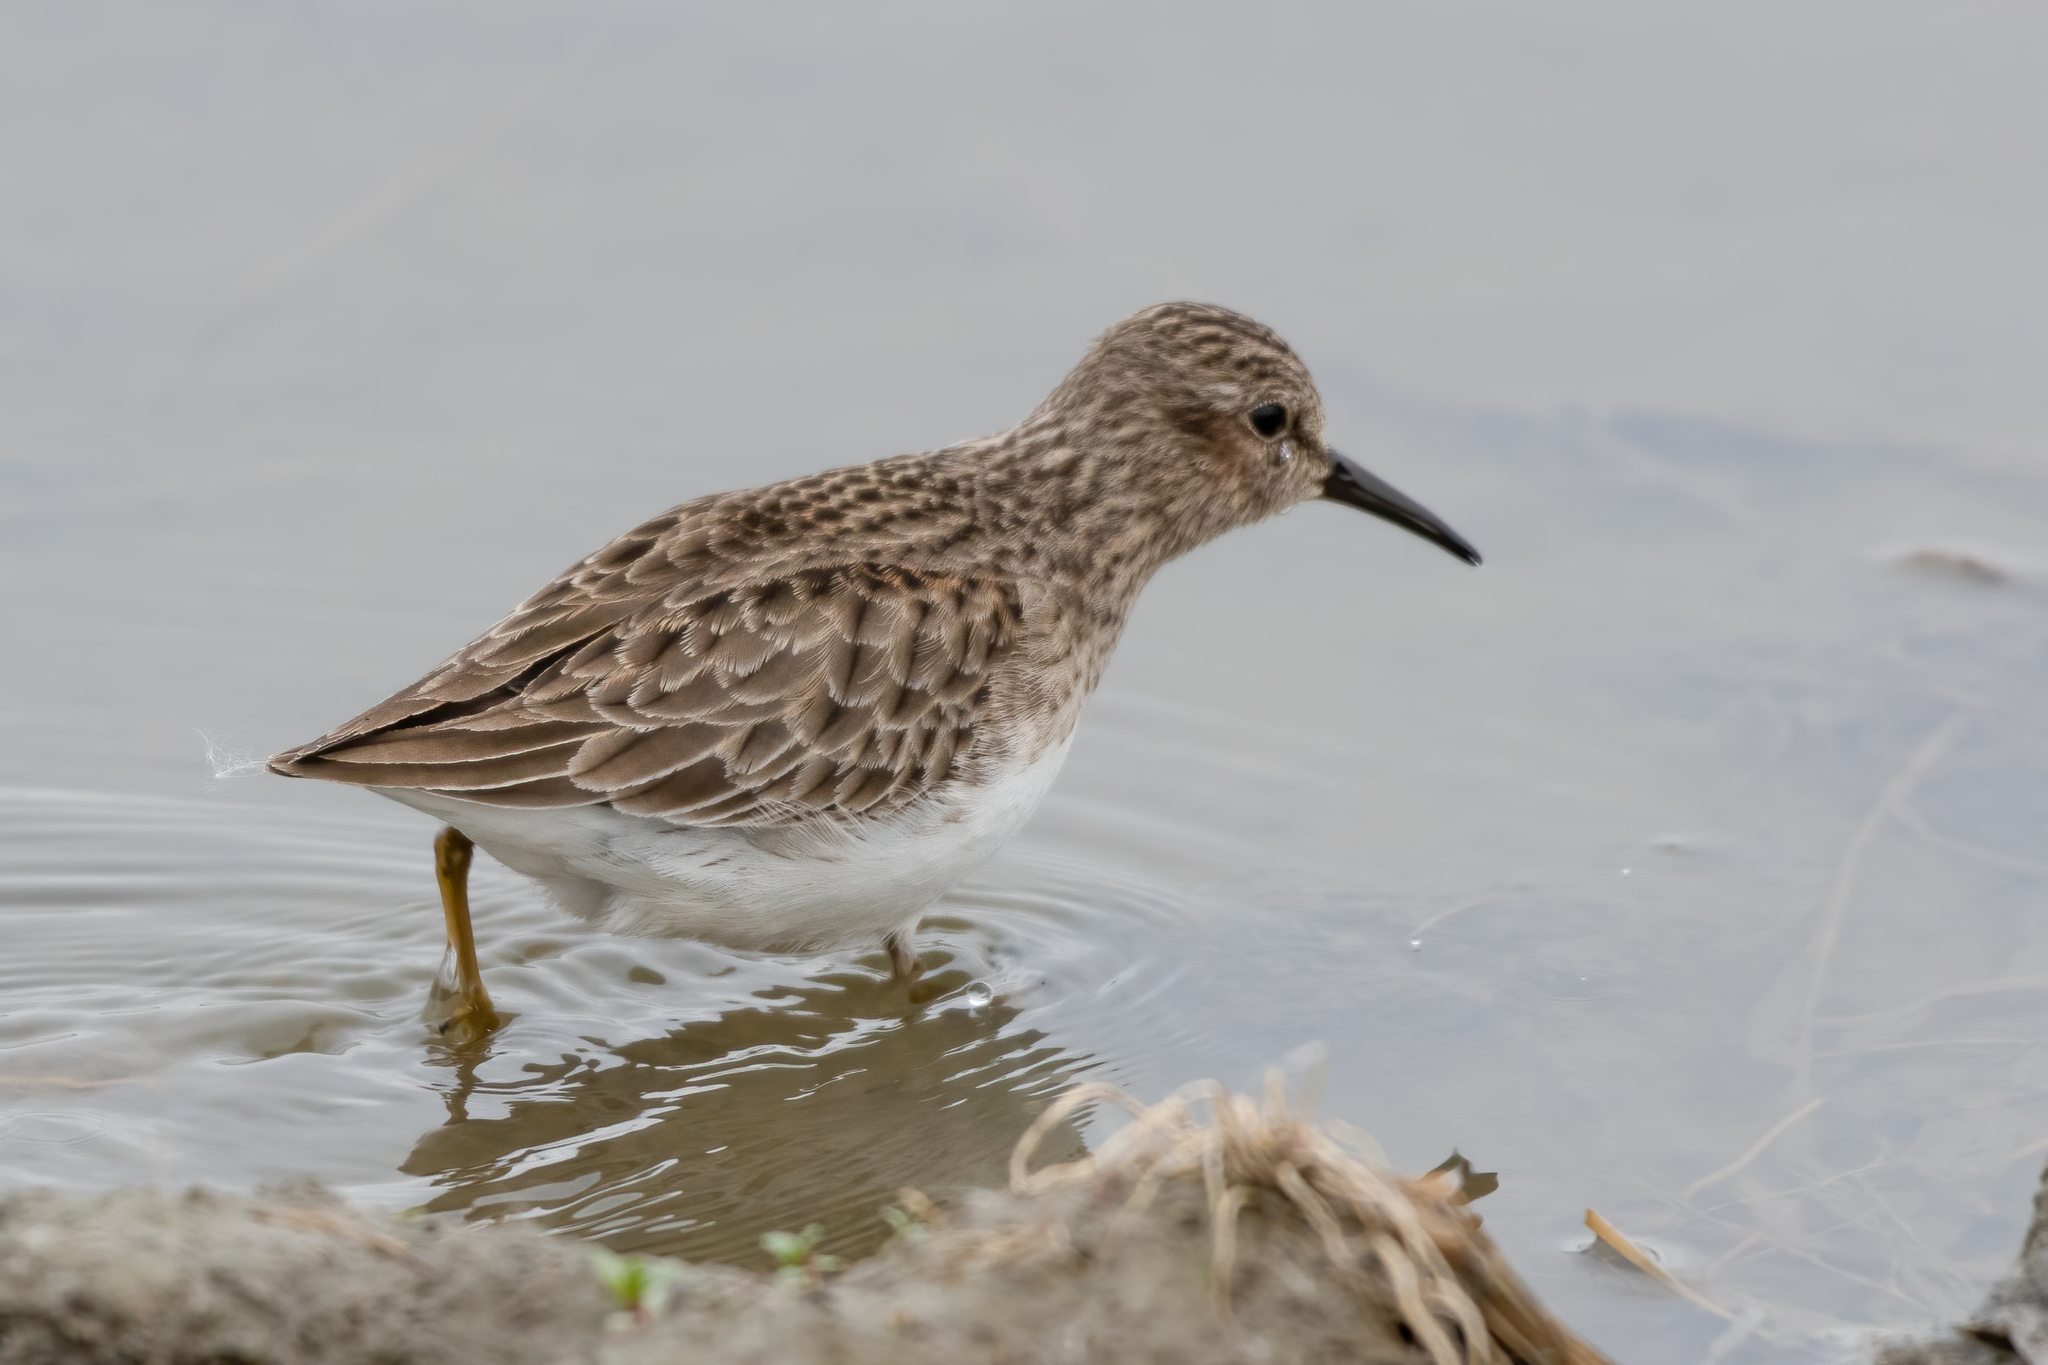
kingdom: Animalia
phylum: Chordata
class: Aves
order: Charadriiformes
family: Scolopacidae
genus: Calidris
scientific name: Calidris minutilla
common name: Least sandpiper
